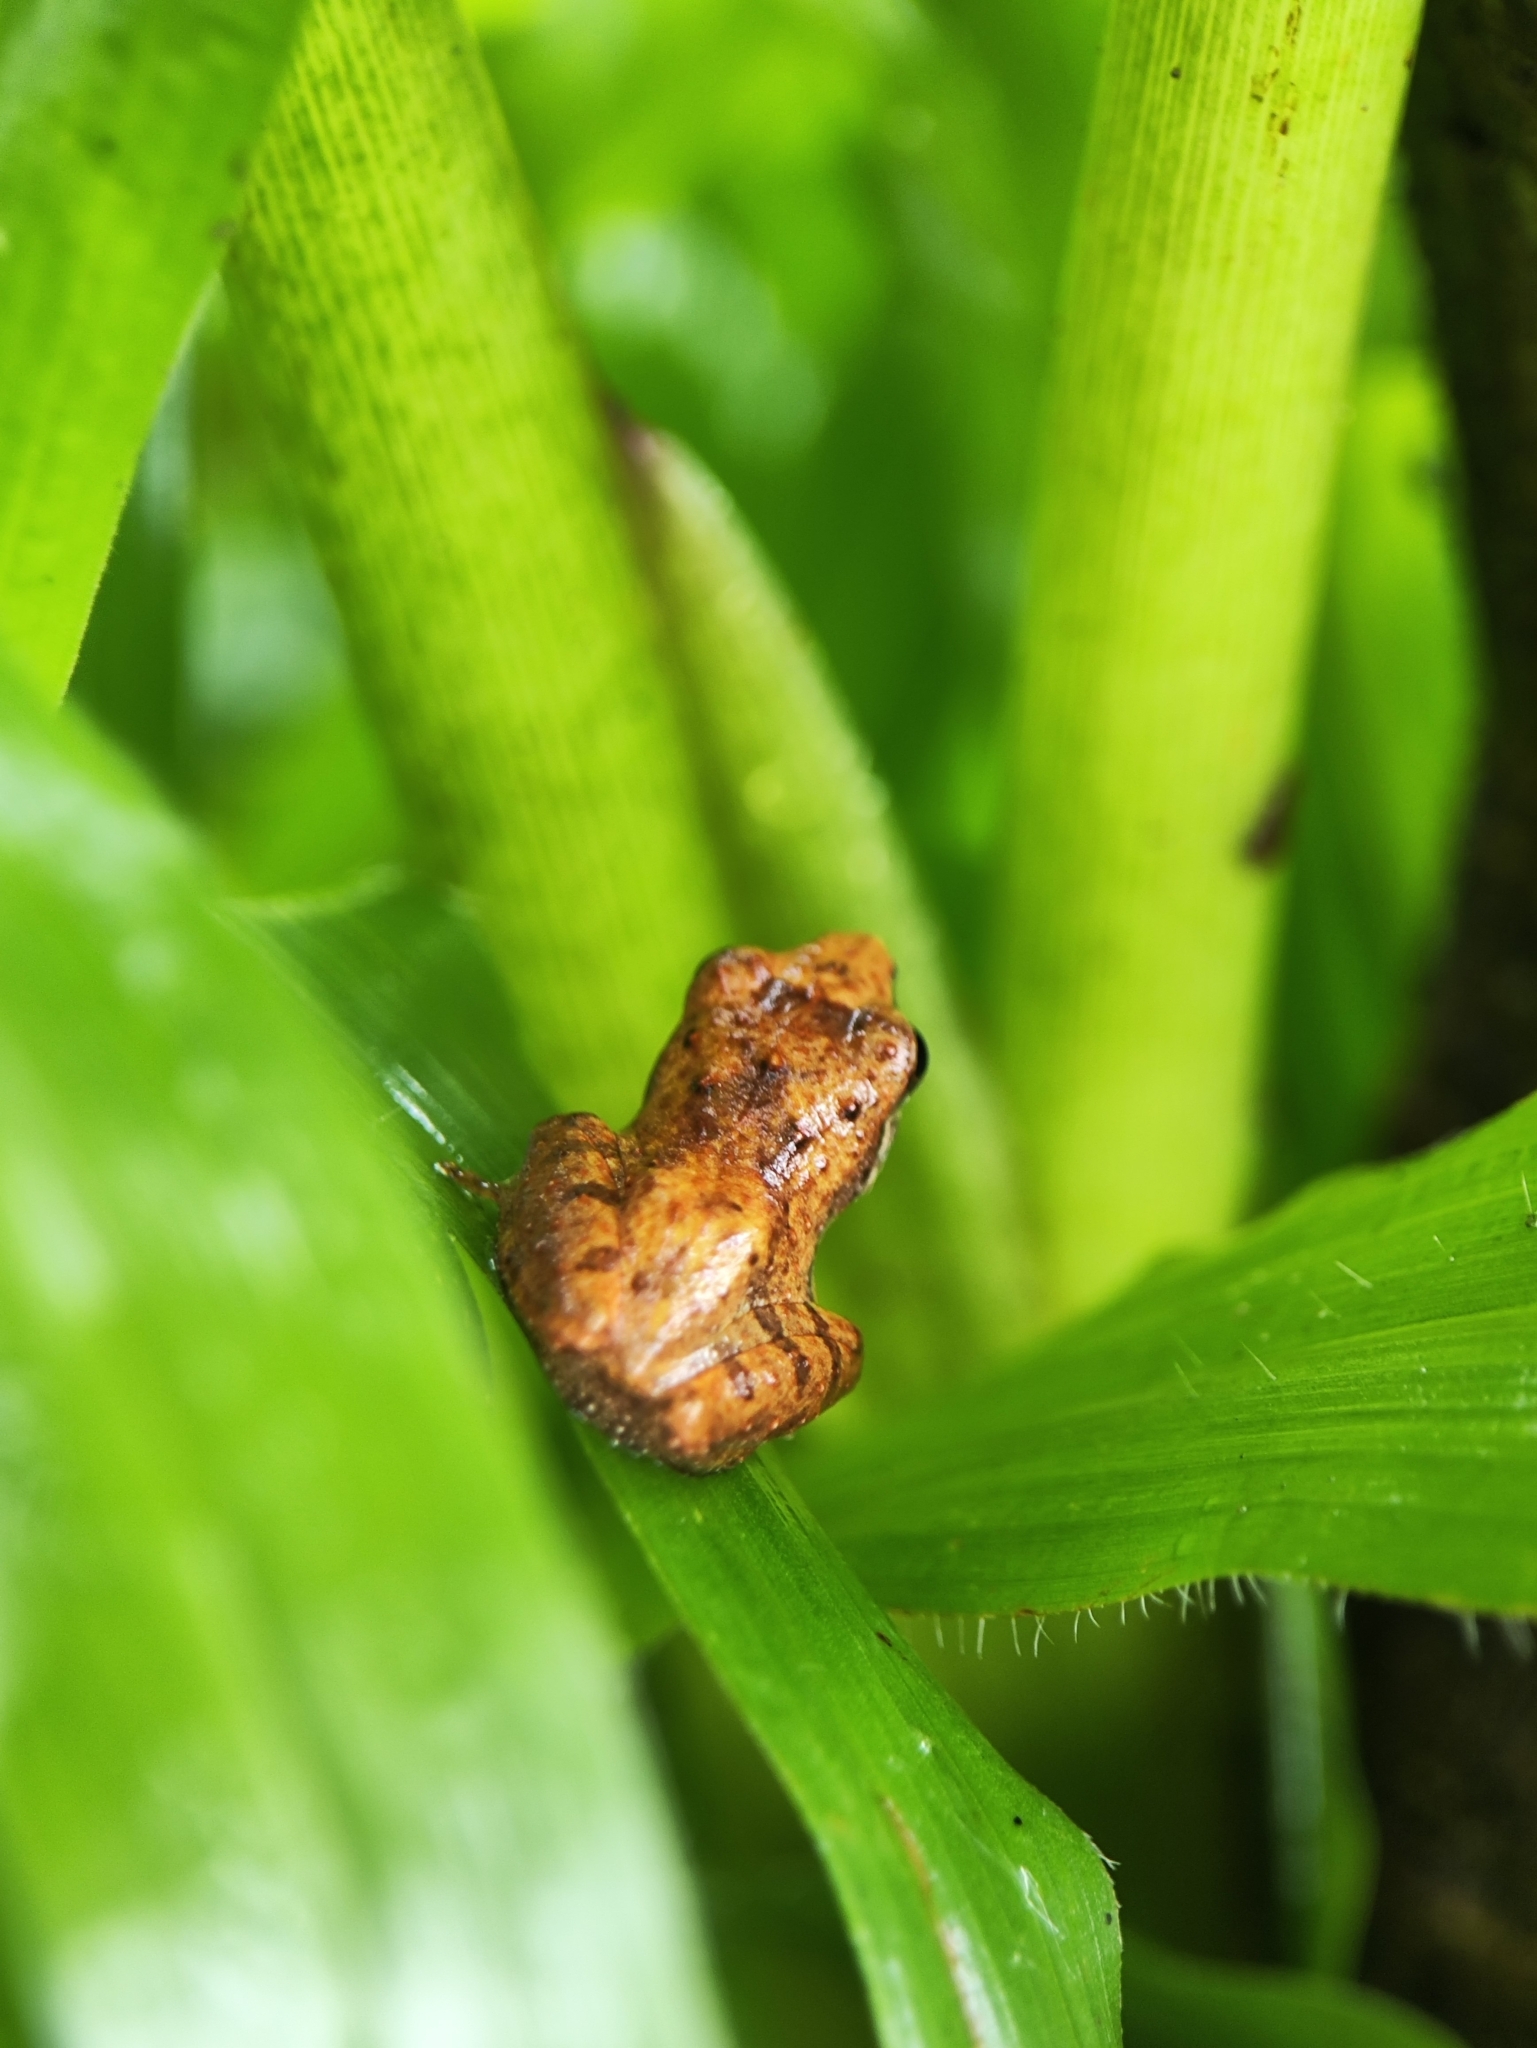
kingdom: Animalia
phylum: Chordata
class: Amphibia
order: Anura
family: Rhacophoridae
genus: Pseudophilautus
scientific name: Pseudophilautus wynaadensis
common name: Dark-eared bush frog
